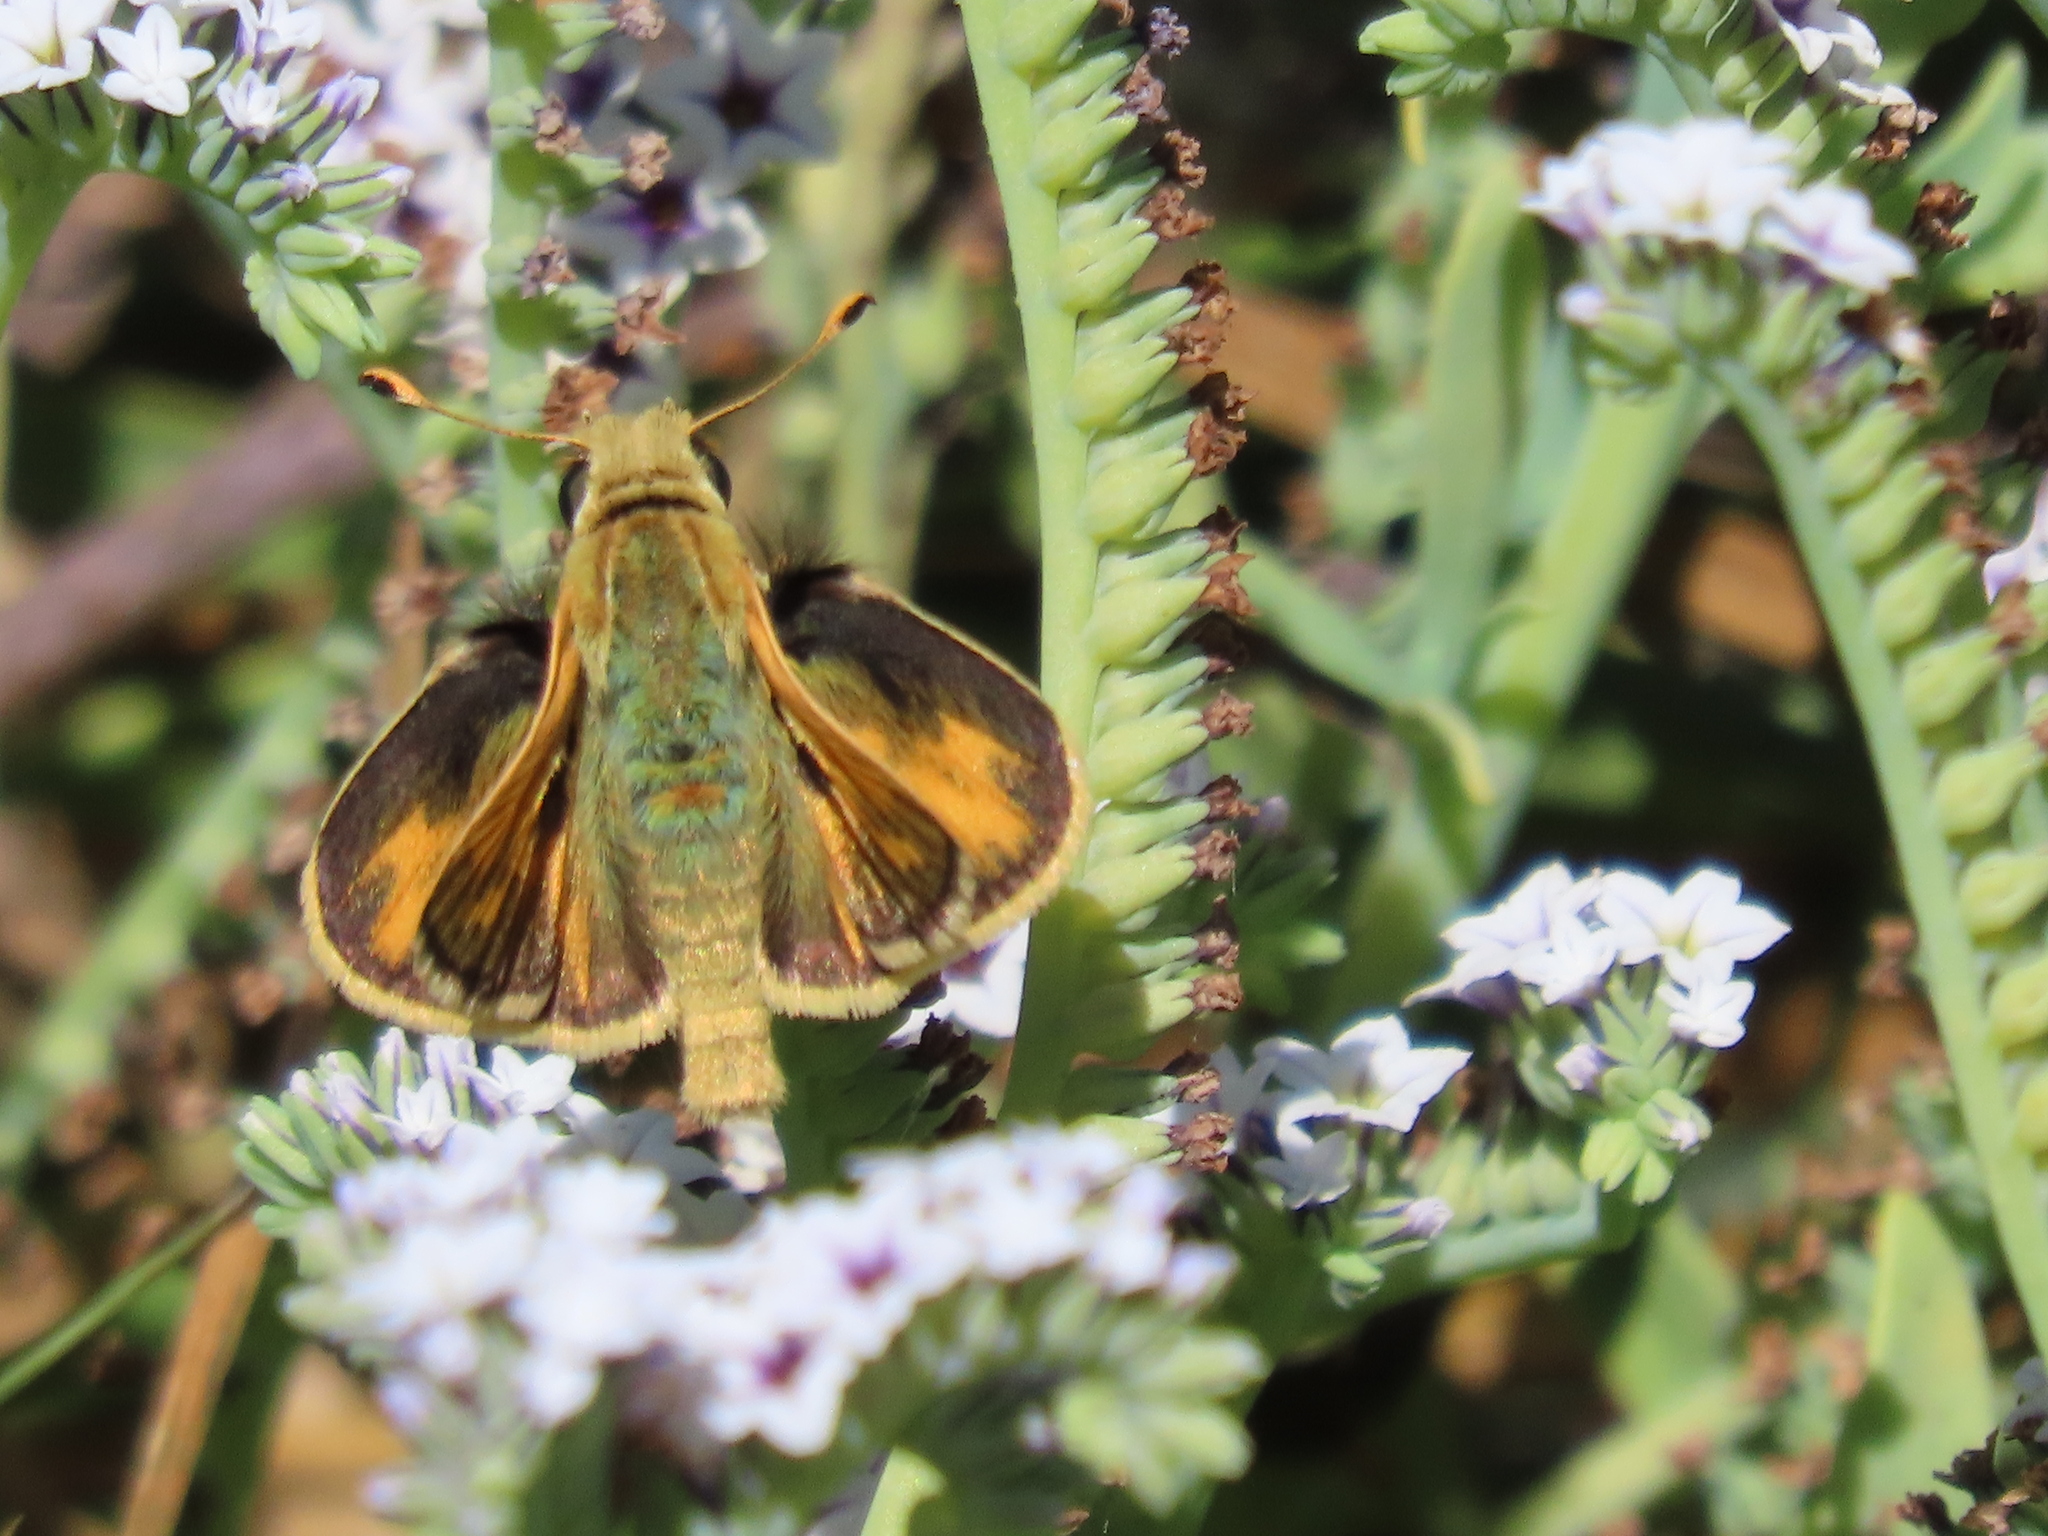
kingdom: Animalia
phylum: Arthropoda
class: Insecta
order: Lepidoptera
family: Hesperiidae
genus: Polites
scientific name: Polites sabuleti
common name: Sandhill skipper
